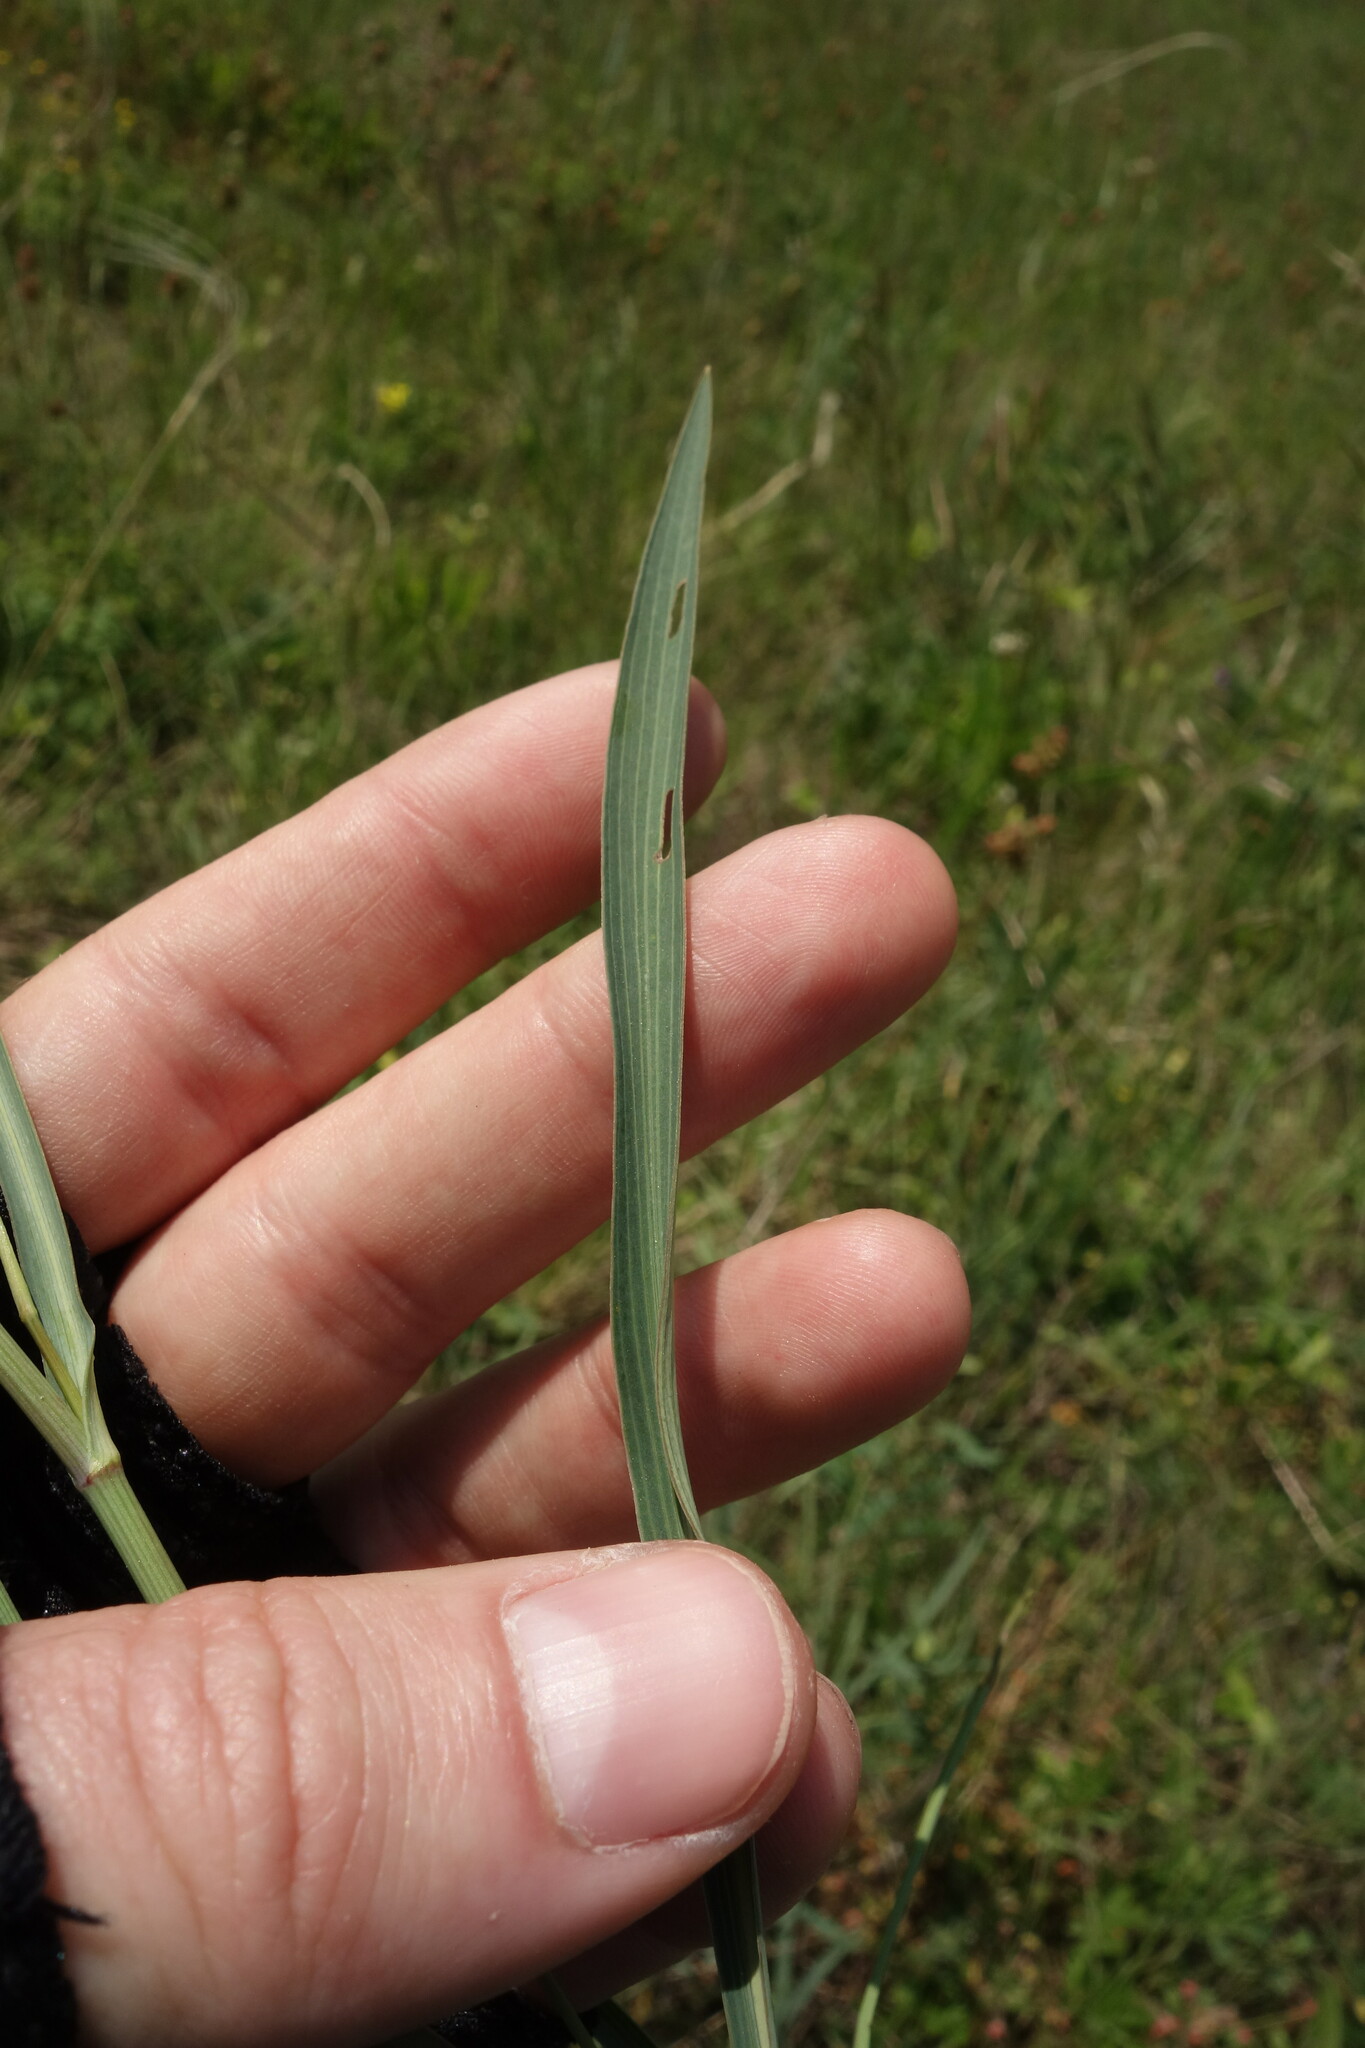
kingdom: Plantae
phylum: Tracheophyta
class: Magnoliopsida
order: Apiales
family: Apiaceae
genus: Bupleurum
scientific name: Bupleurum falcatum
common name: Sickle-leaved hare's-ear
